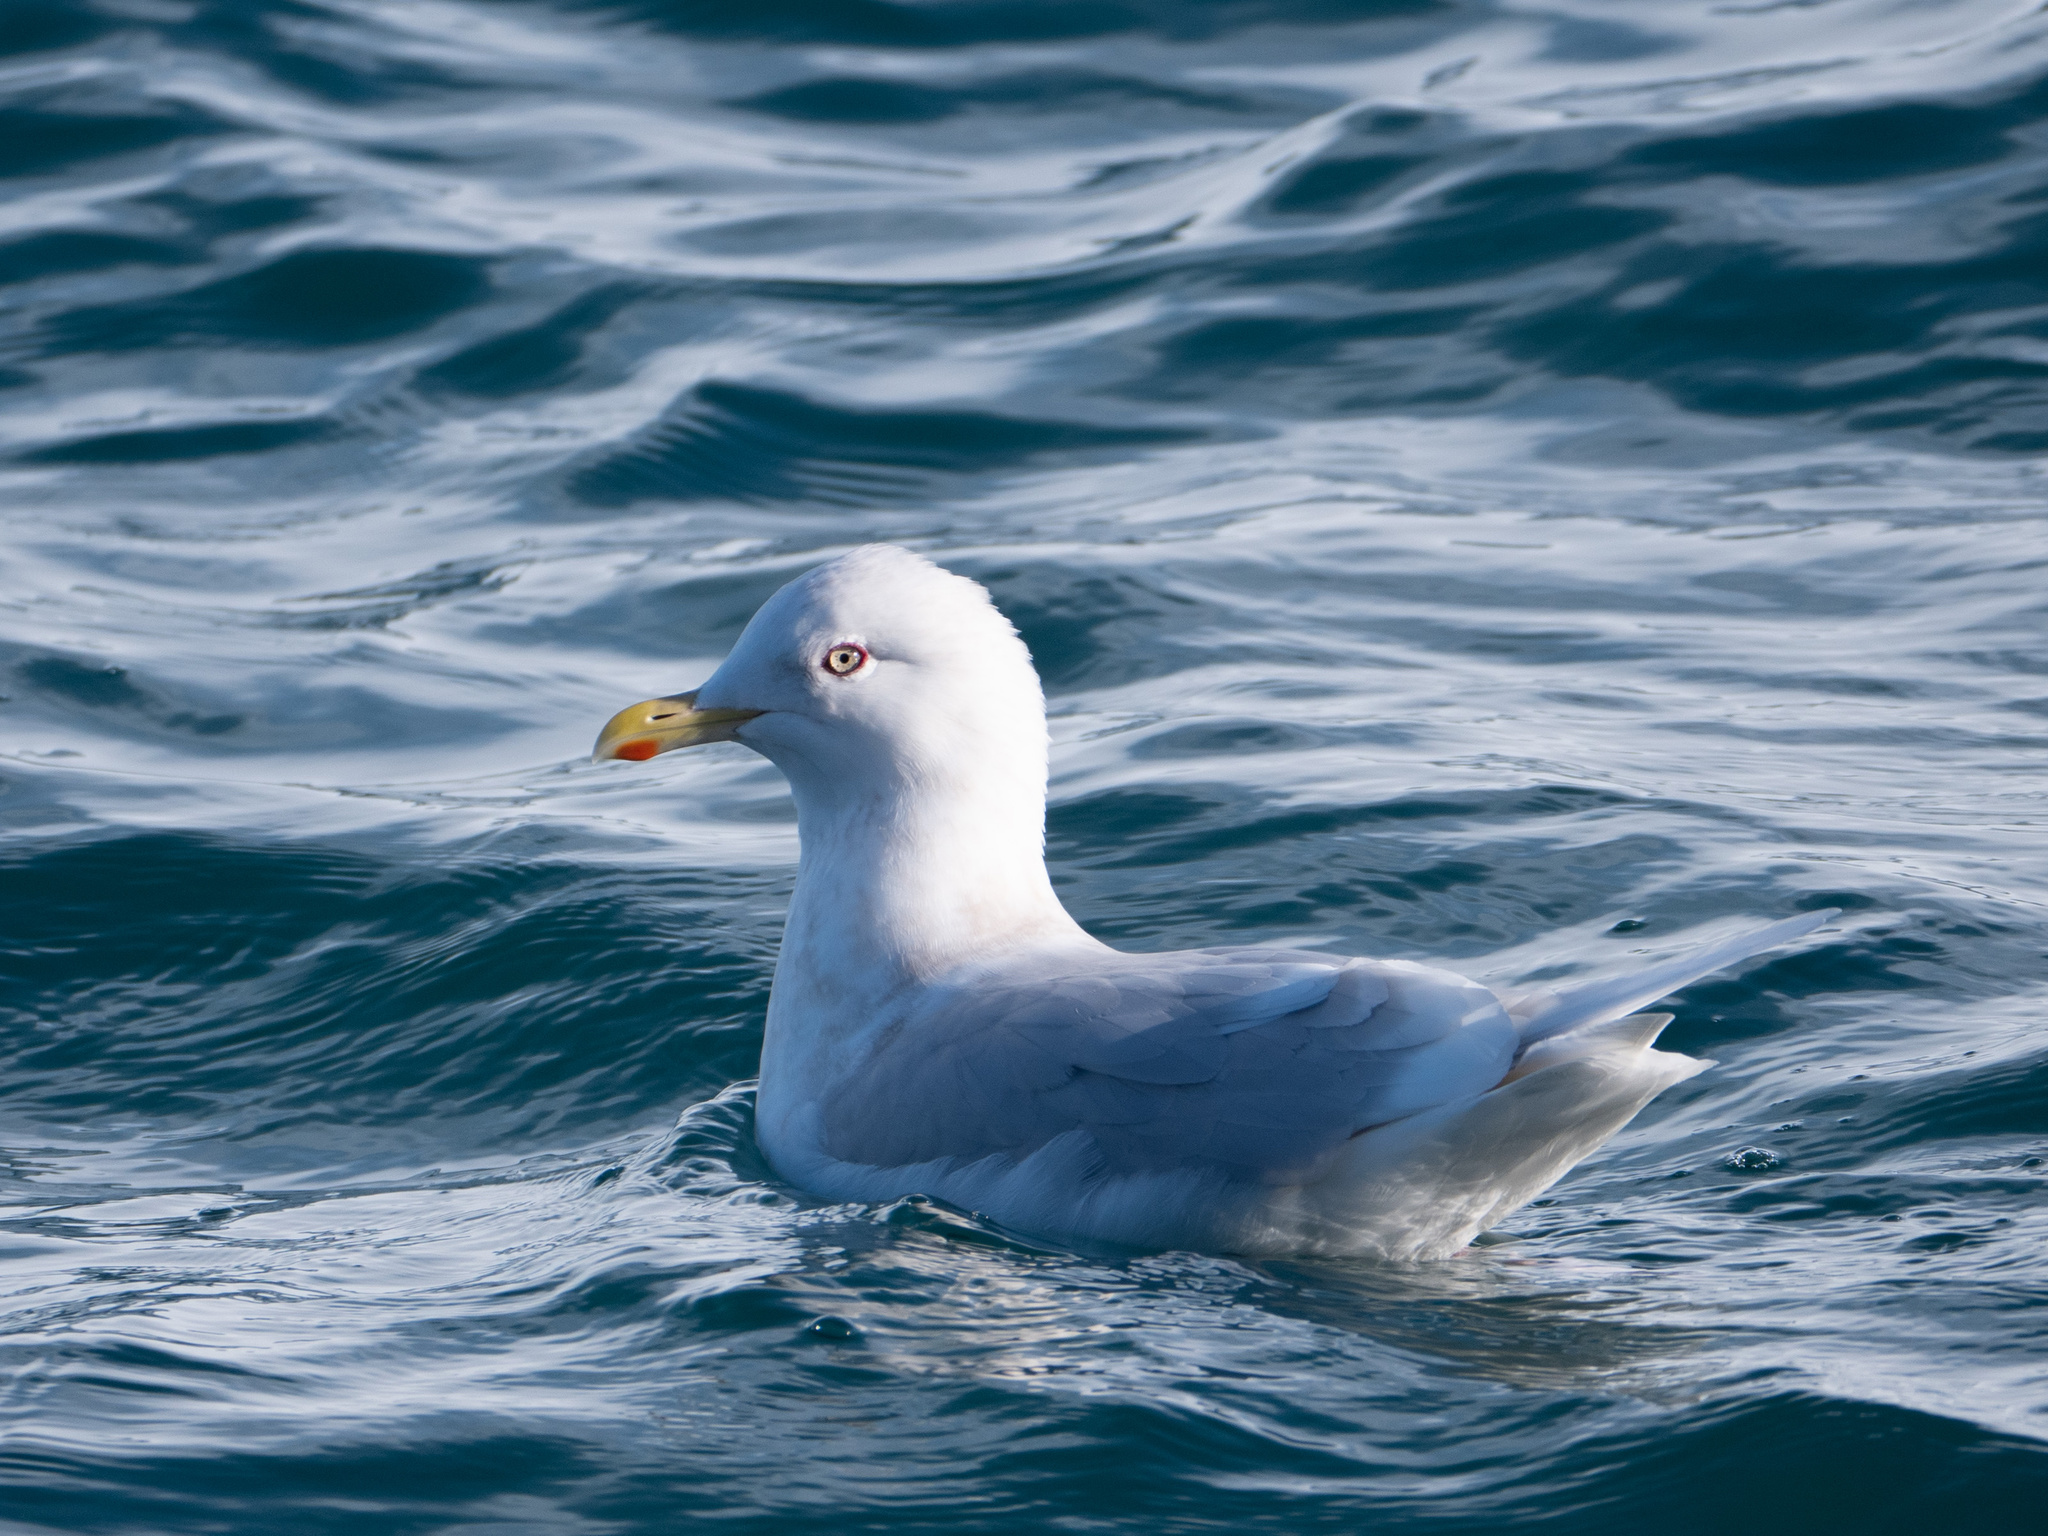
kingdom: Animalia
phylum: Chordata
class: Aves
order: Charadriiformes
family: Laridae
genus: Larus
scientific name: Larus glaucoides
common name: Iceland gull
